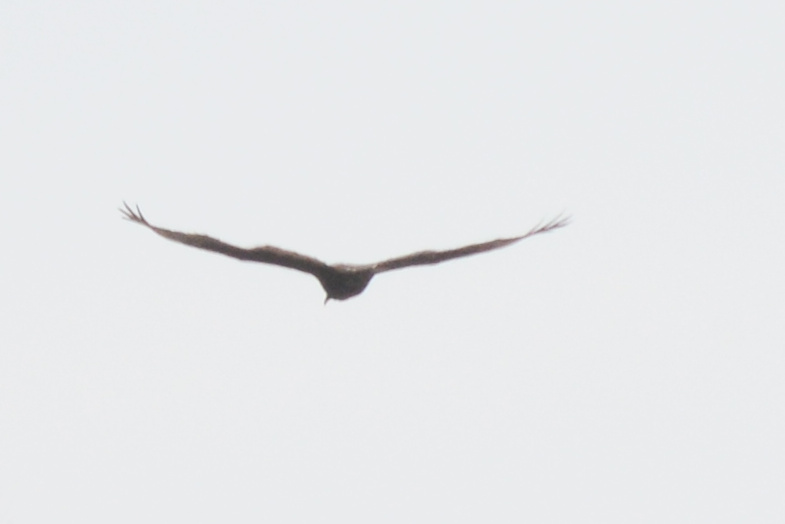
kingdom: Animalia
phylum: Chordata
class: Aves
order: Accipitriformes
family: Cathartidae
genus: Cathartes
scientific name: Cathartes aura
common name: Turkey vulture
